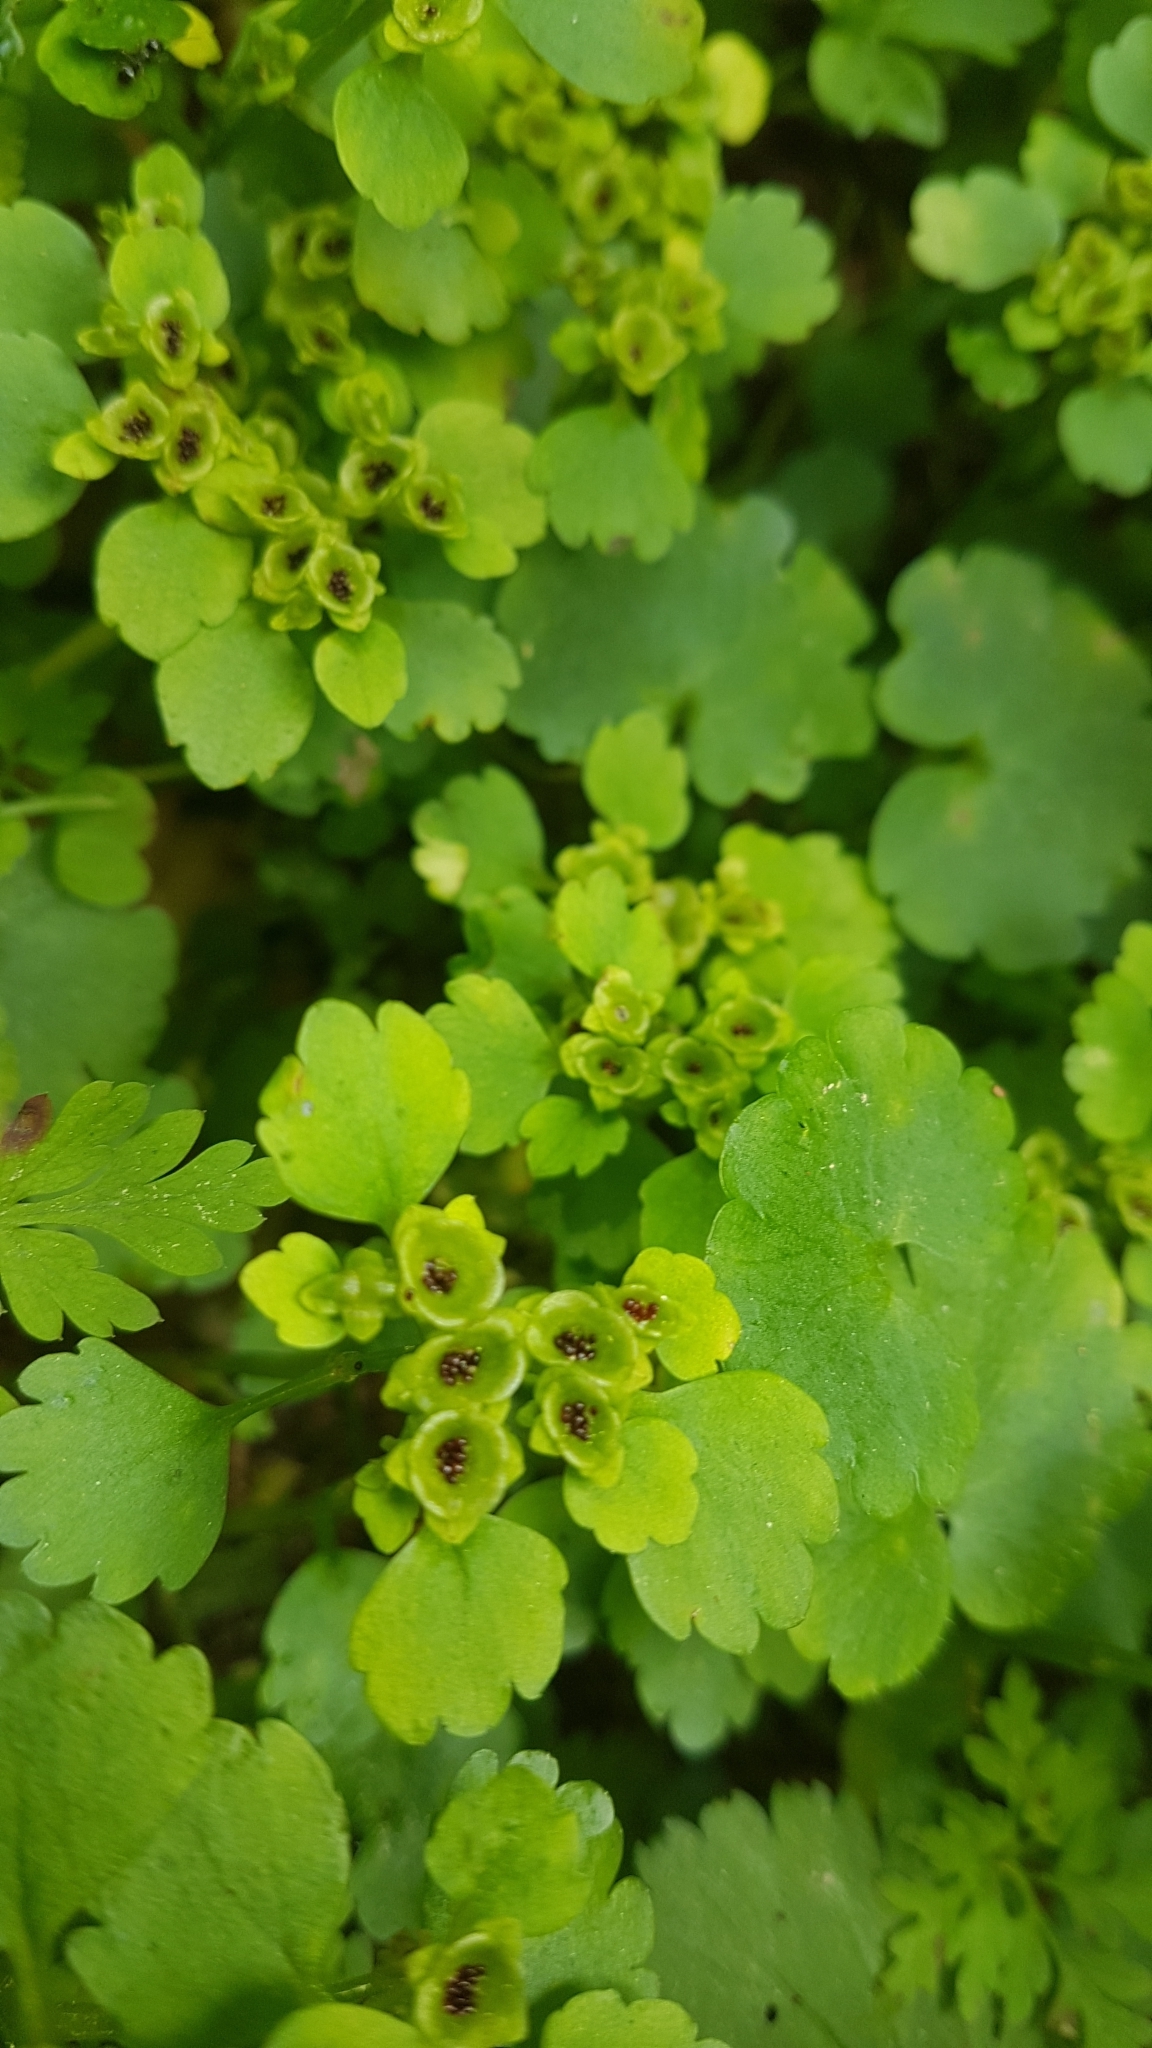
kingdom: Plantae
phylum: Tracheophyta
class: Magnoliopsida
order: Saxifragales
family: Saxifragaceae
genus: Chrysosplenium
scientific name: Chrysosplenium alternifolium
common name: Alternate-leaved golden-saxifrage
